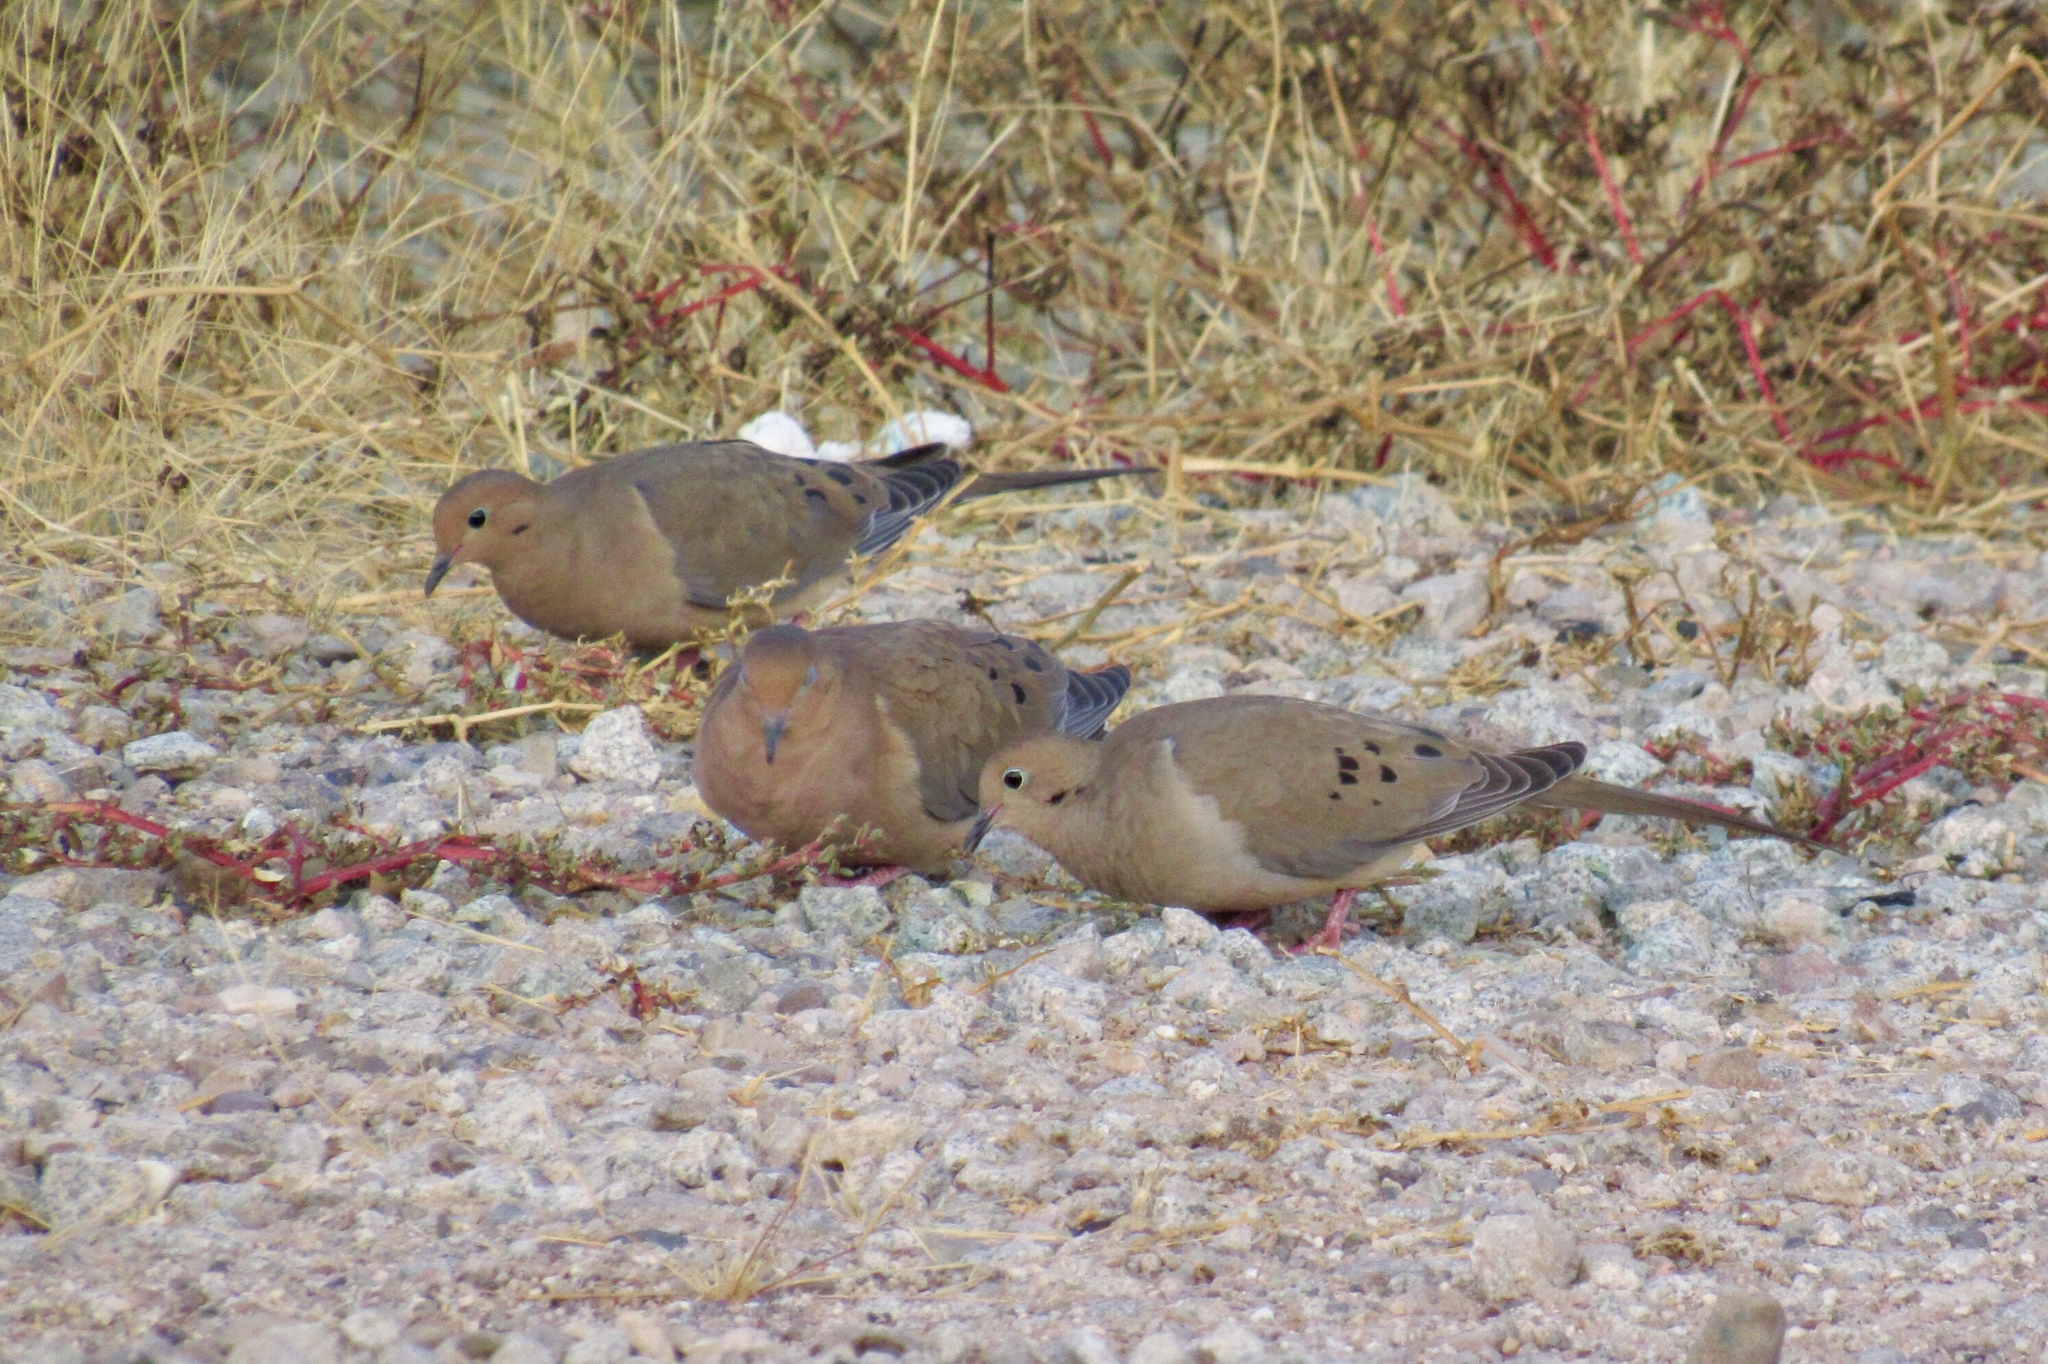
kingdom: Animalia
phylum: Chordata
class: Aves
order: Columbiformes
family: Columbidae
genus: Zenaida
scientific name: Zenaida macroura
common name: Mourning dove
